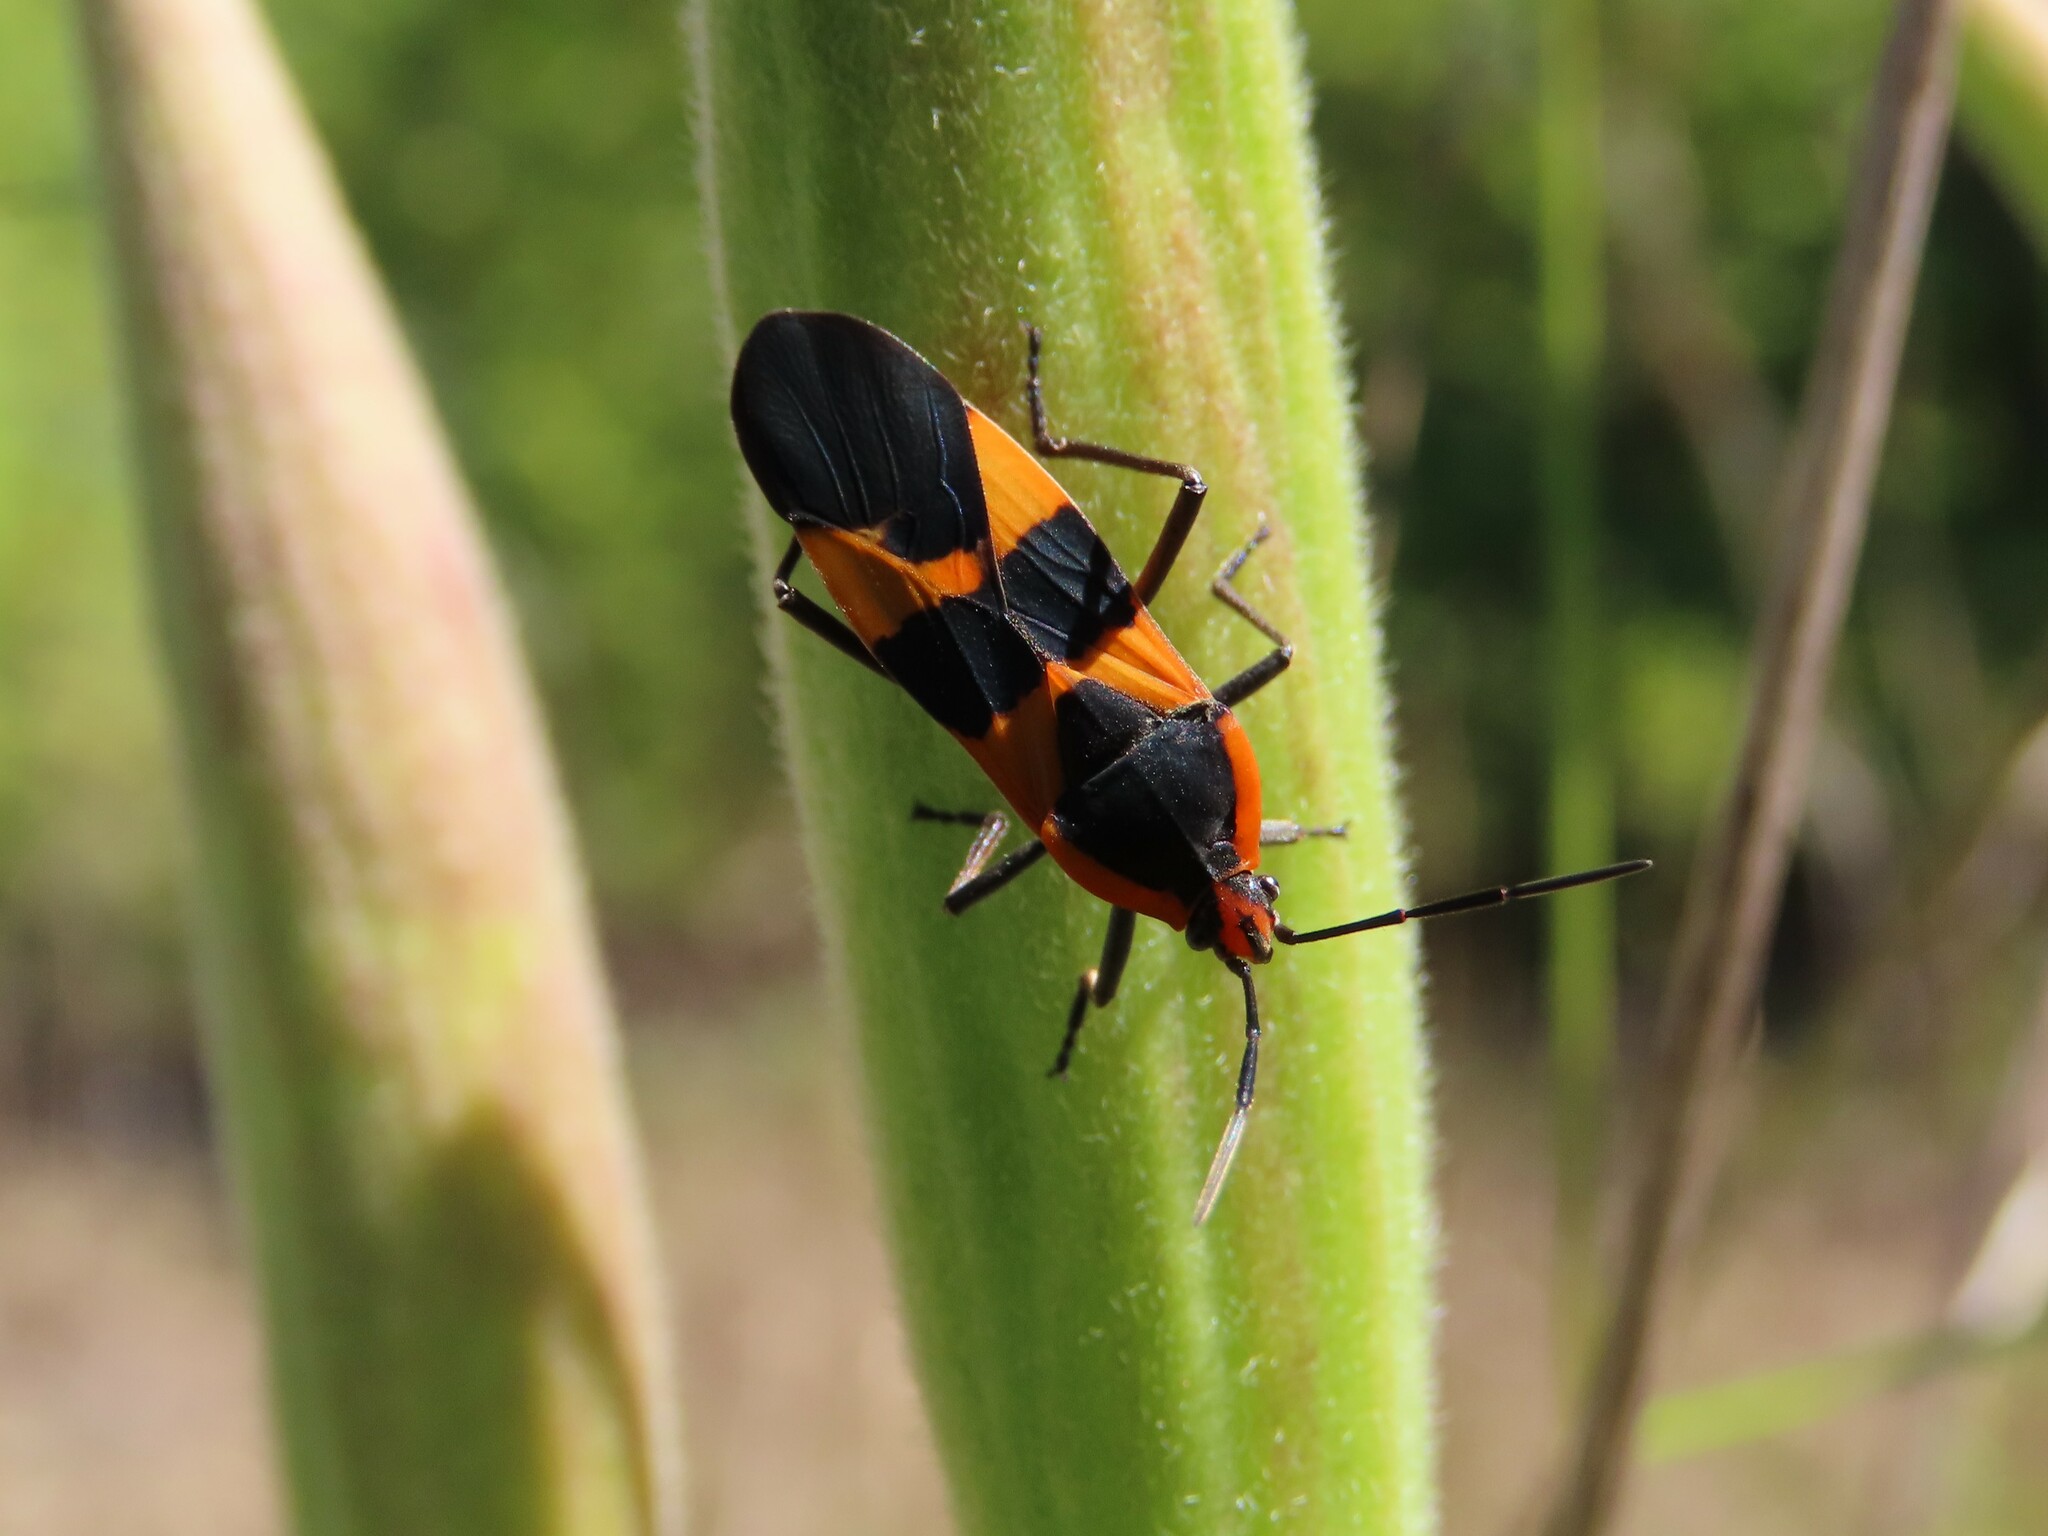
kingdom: Animalia
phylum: Arthropoda
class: Insecta
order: Hemiptera
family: Lygaeidae
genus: Oncopeltus
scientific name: Oncopeltus fasciatus
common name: Large milkweed bug
